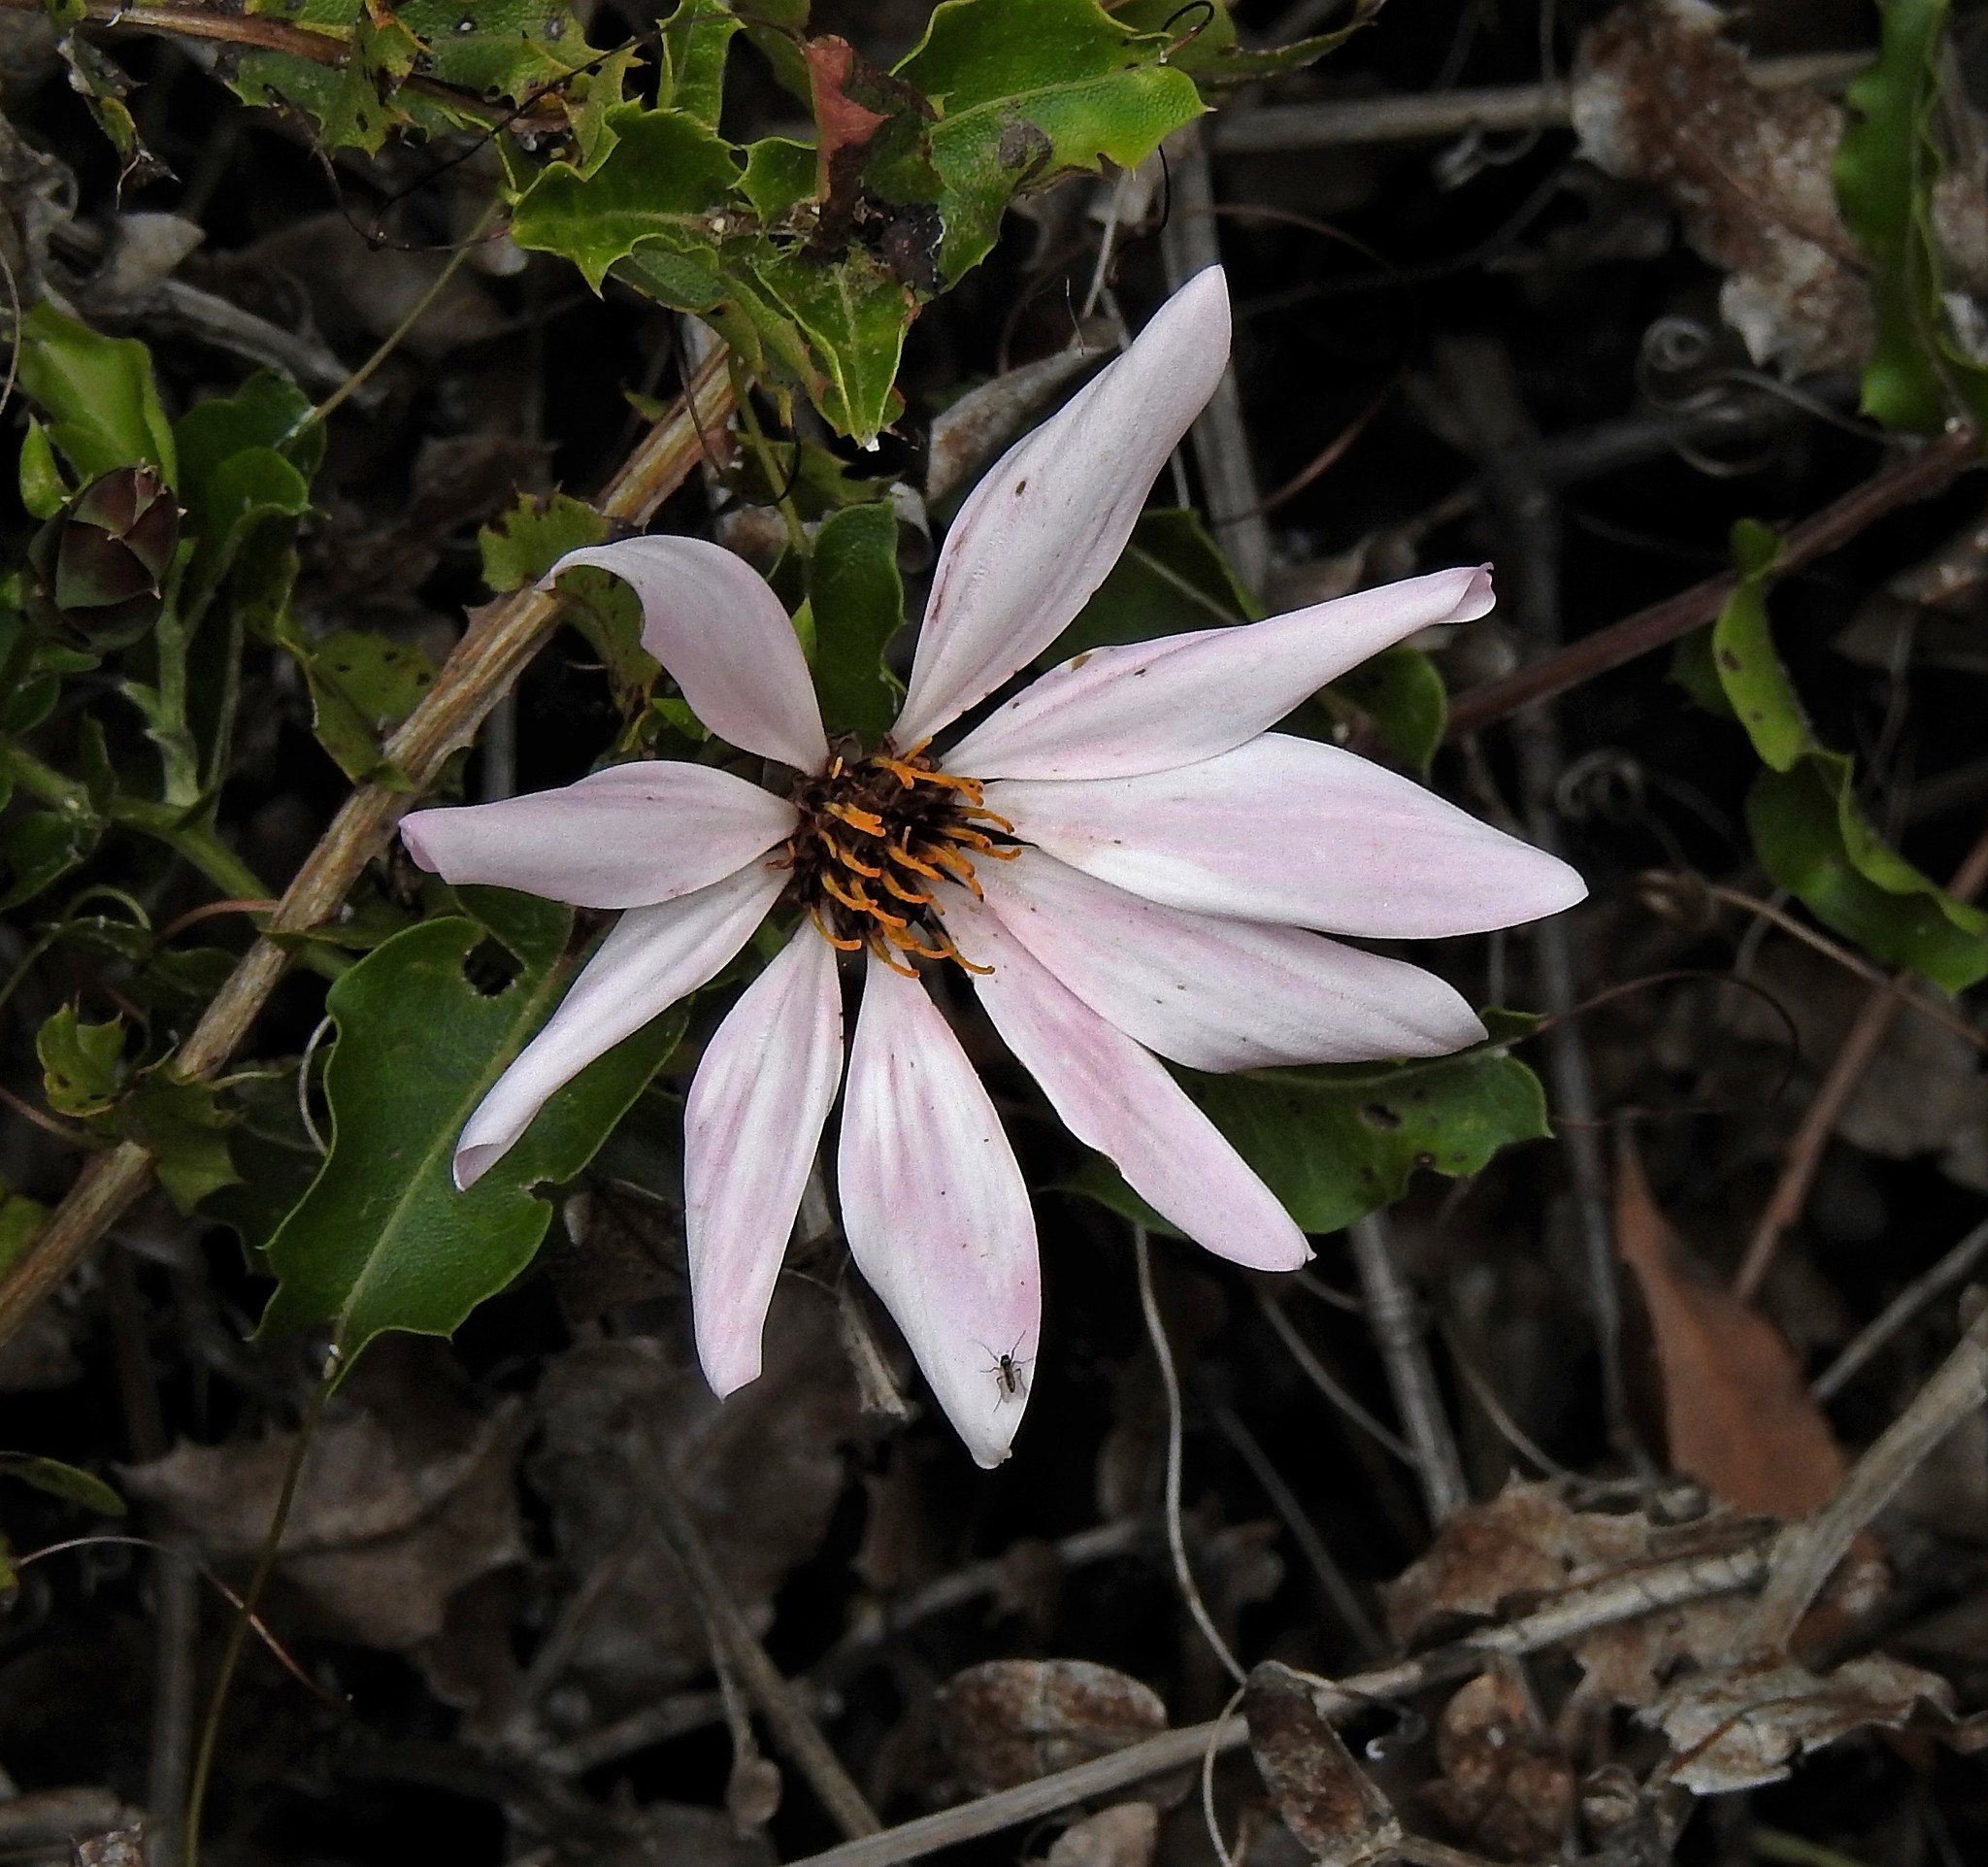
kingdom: Plantae
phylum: Tracheophyta
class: Magnoliopsida
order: Asterales
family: Asteraceae
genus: Mutisia
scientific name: Mutisia spinosa
